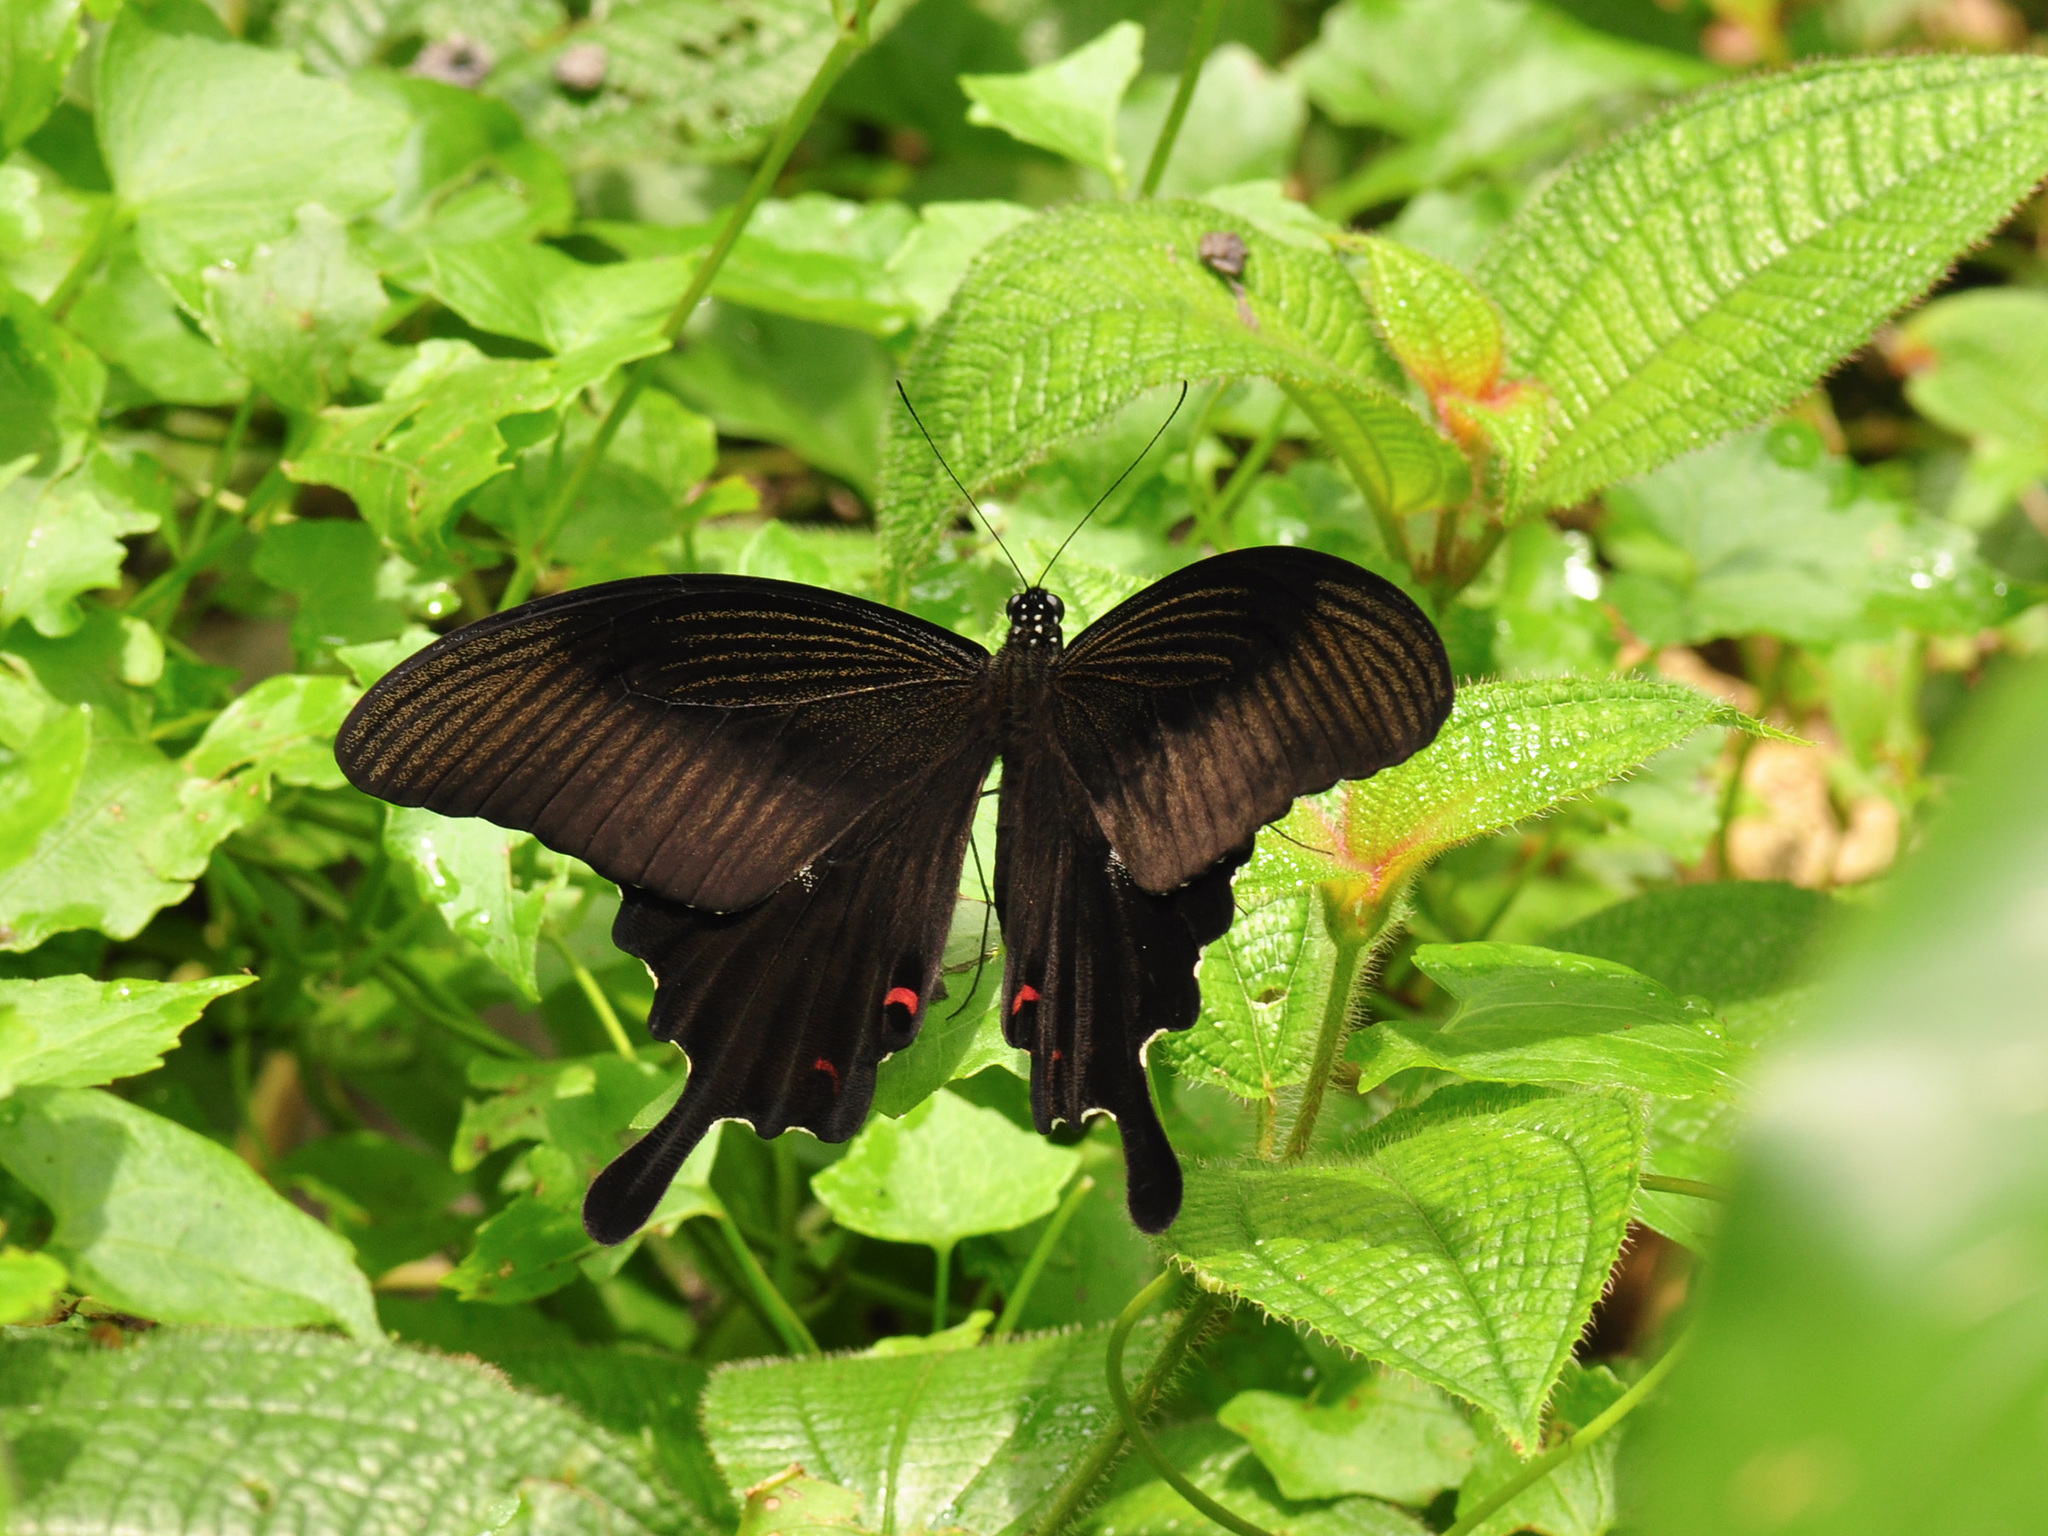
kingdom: Animalia
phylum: Arthropoda
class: Insecta
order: Lepidoptera
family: Papilionidae
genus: Papilio
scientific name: Papilio helenus
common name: Red helen
